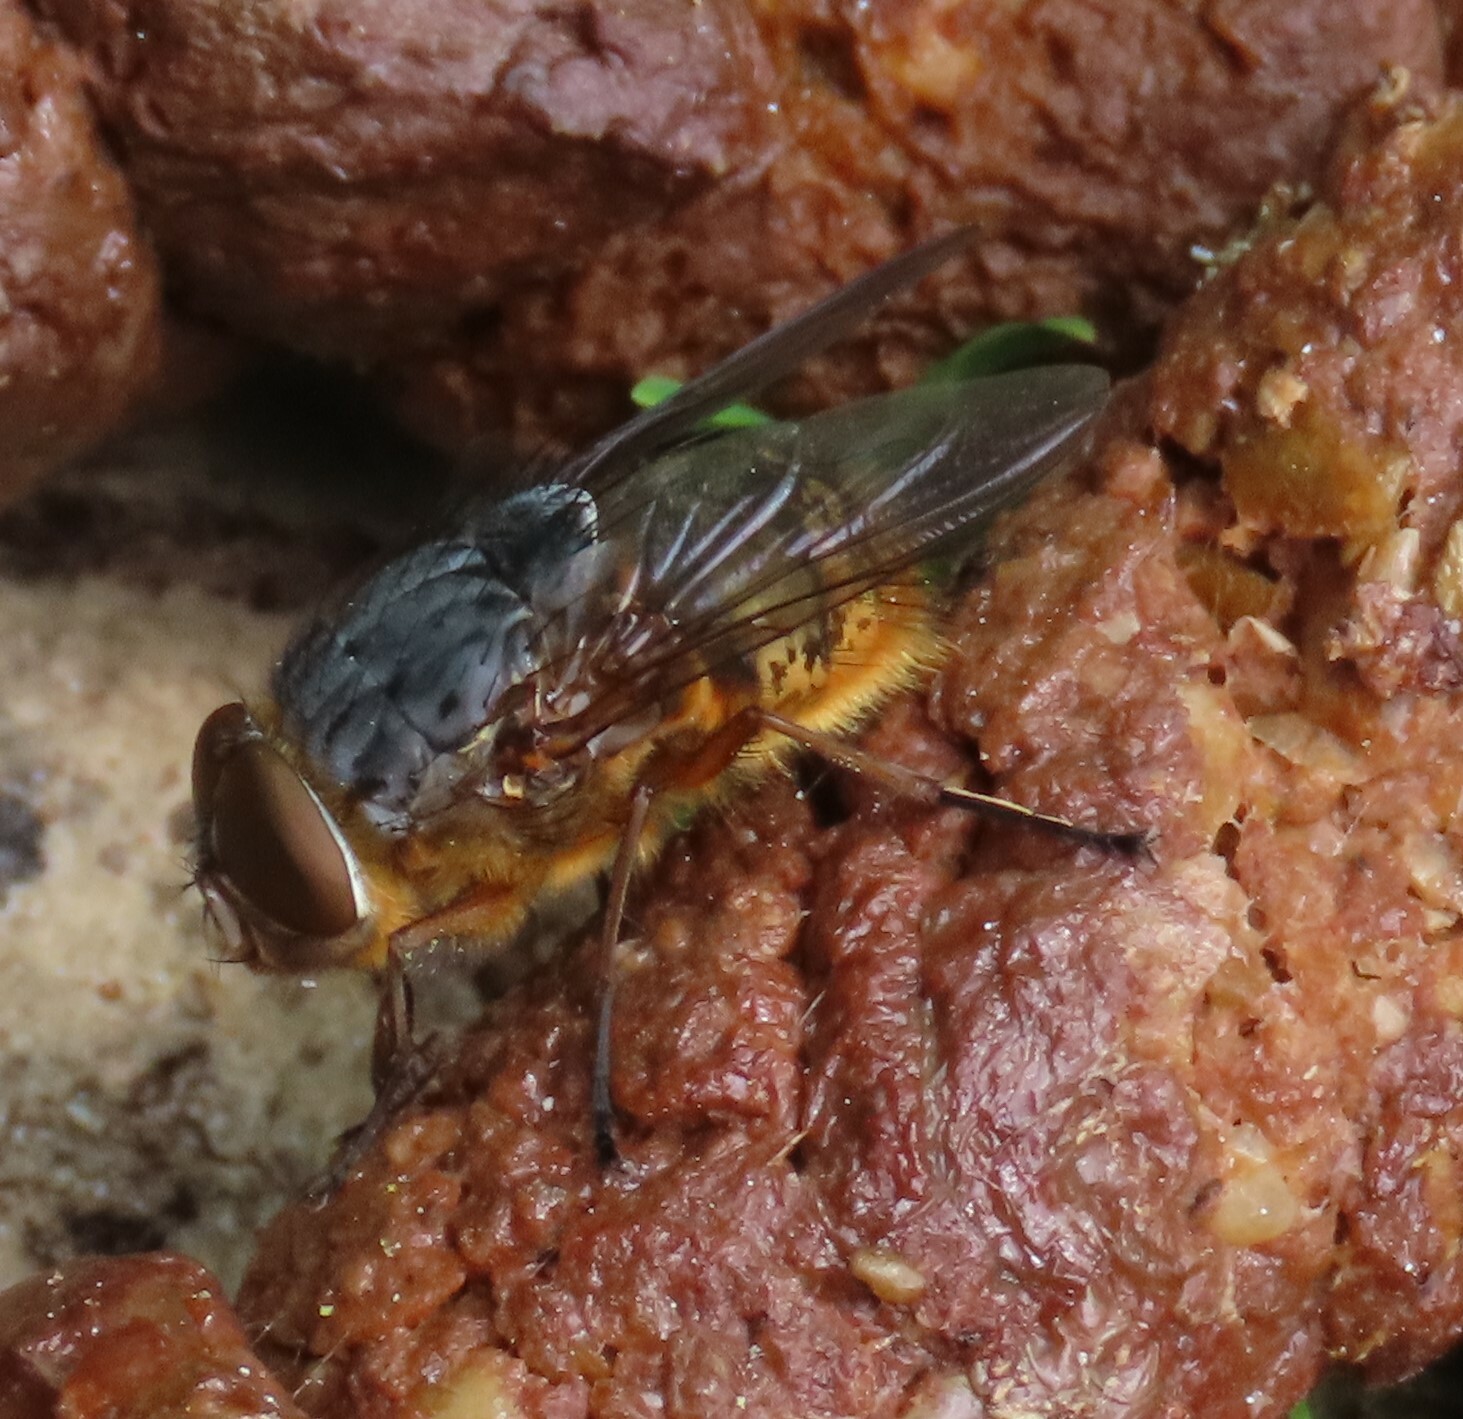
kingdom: Animalia
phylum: Arthropoda
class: Insecta
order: Diptera
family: Calliphoridae
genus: Calliphora
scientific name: Calliphora stygia
